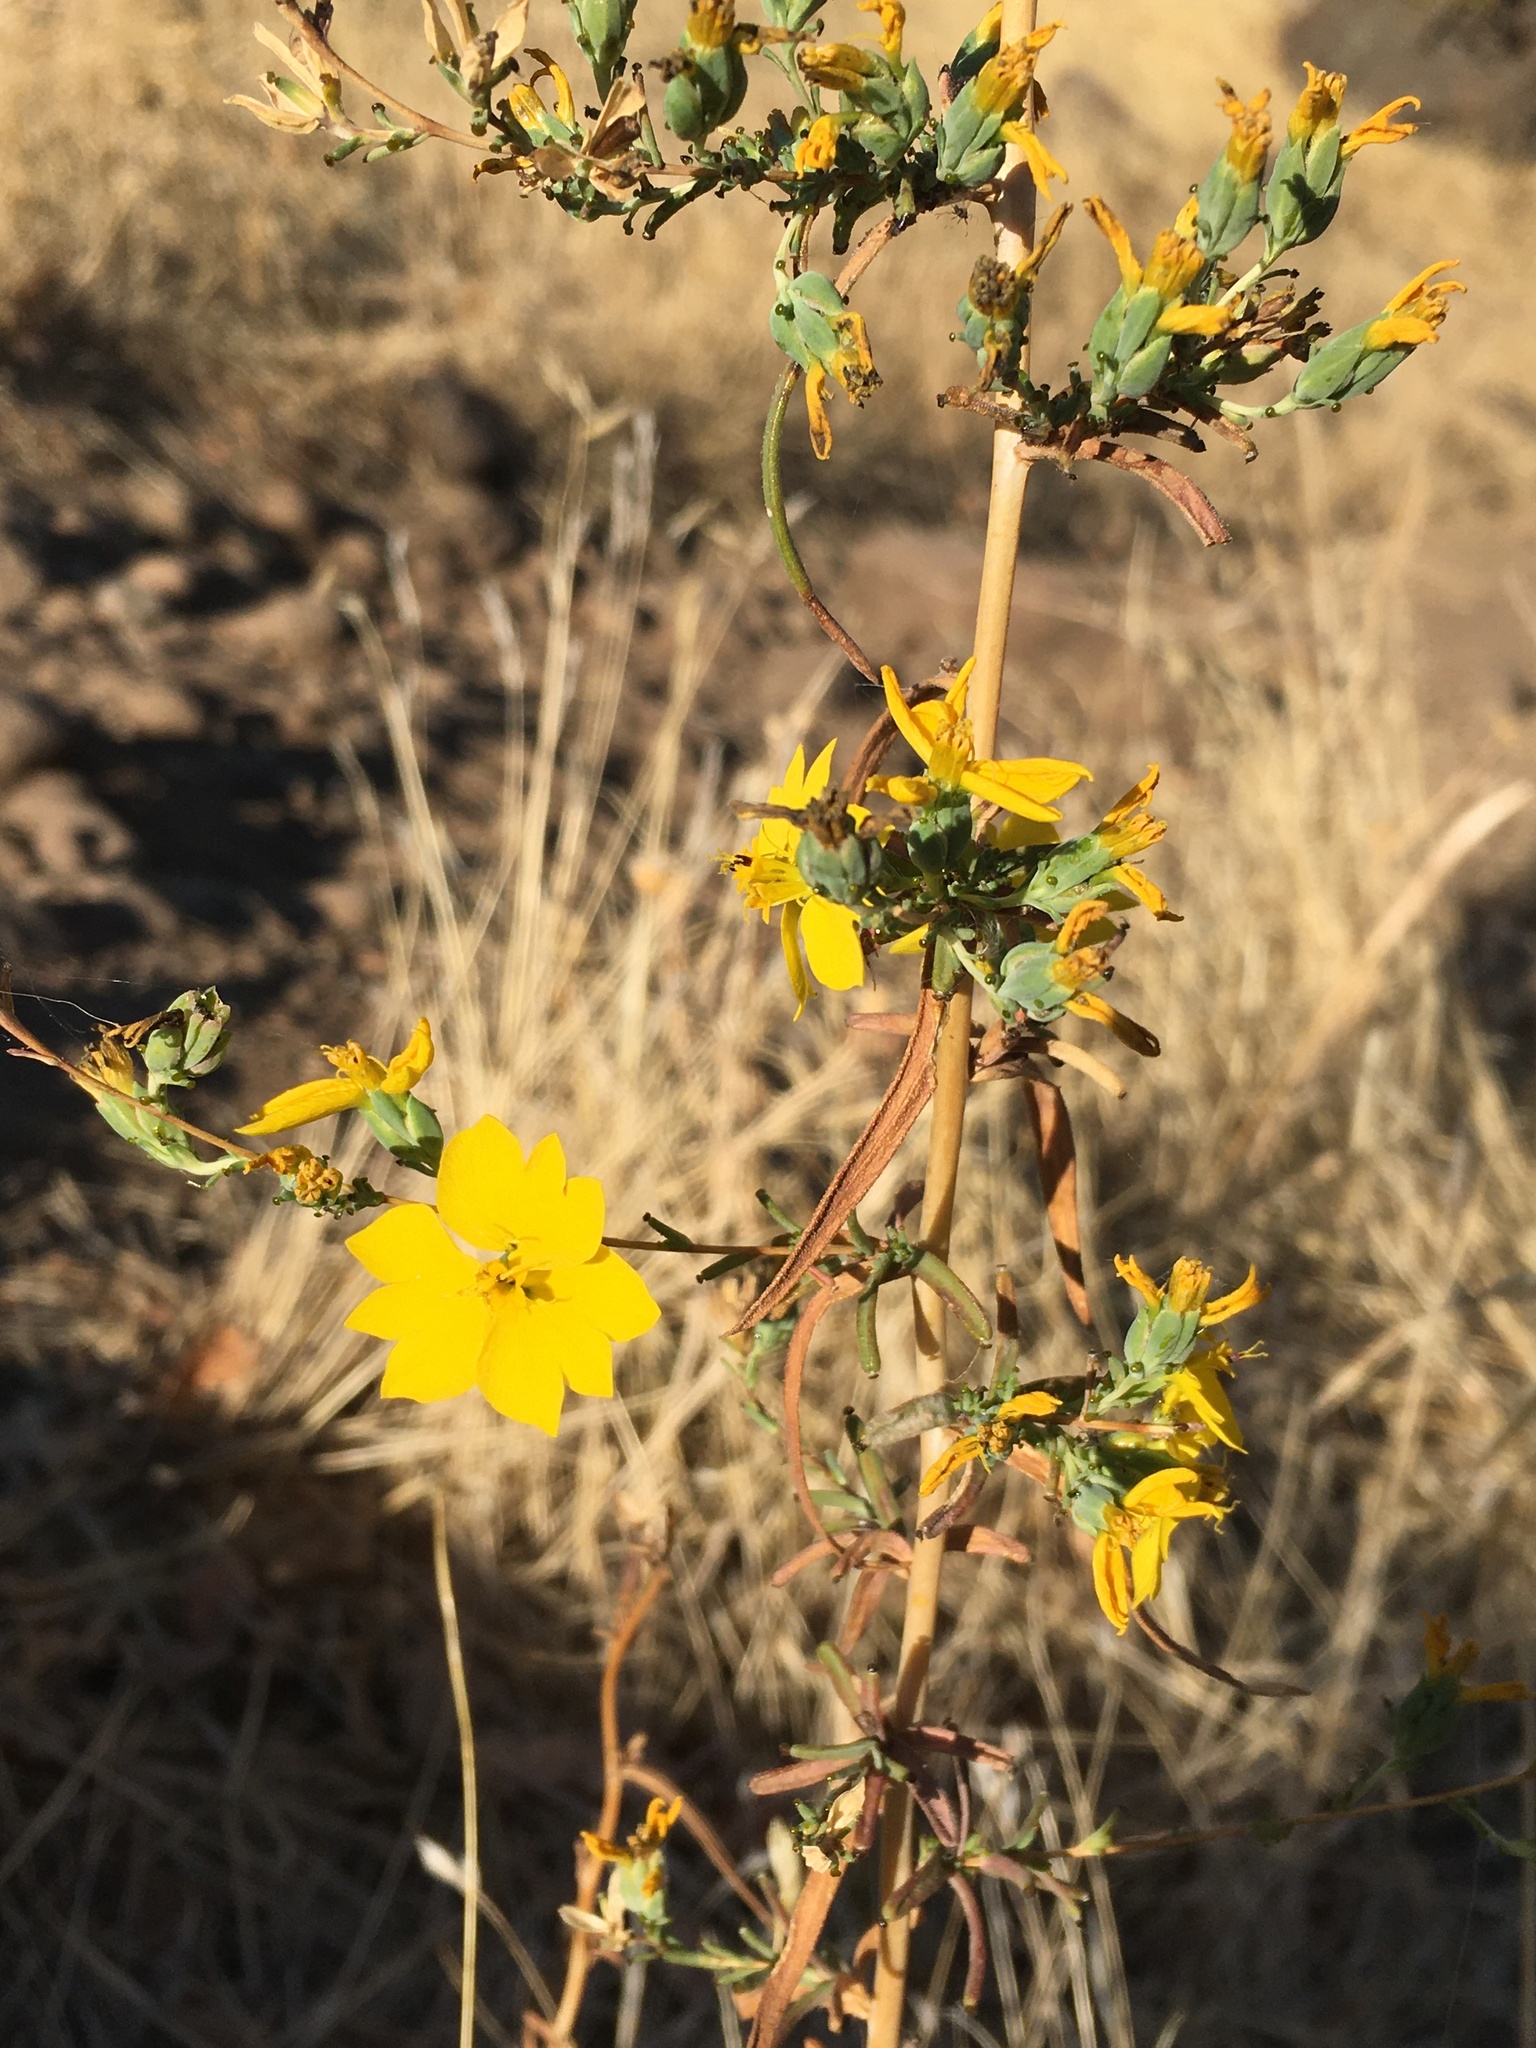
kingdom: Plantae
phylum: Tracheophyta
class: Magnoliopsida
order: Asterales
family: Asteraceae
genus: Calycadenia
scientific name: Calycadenia truncata
